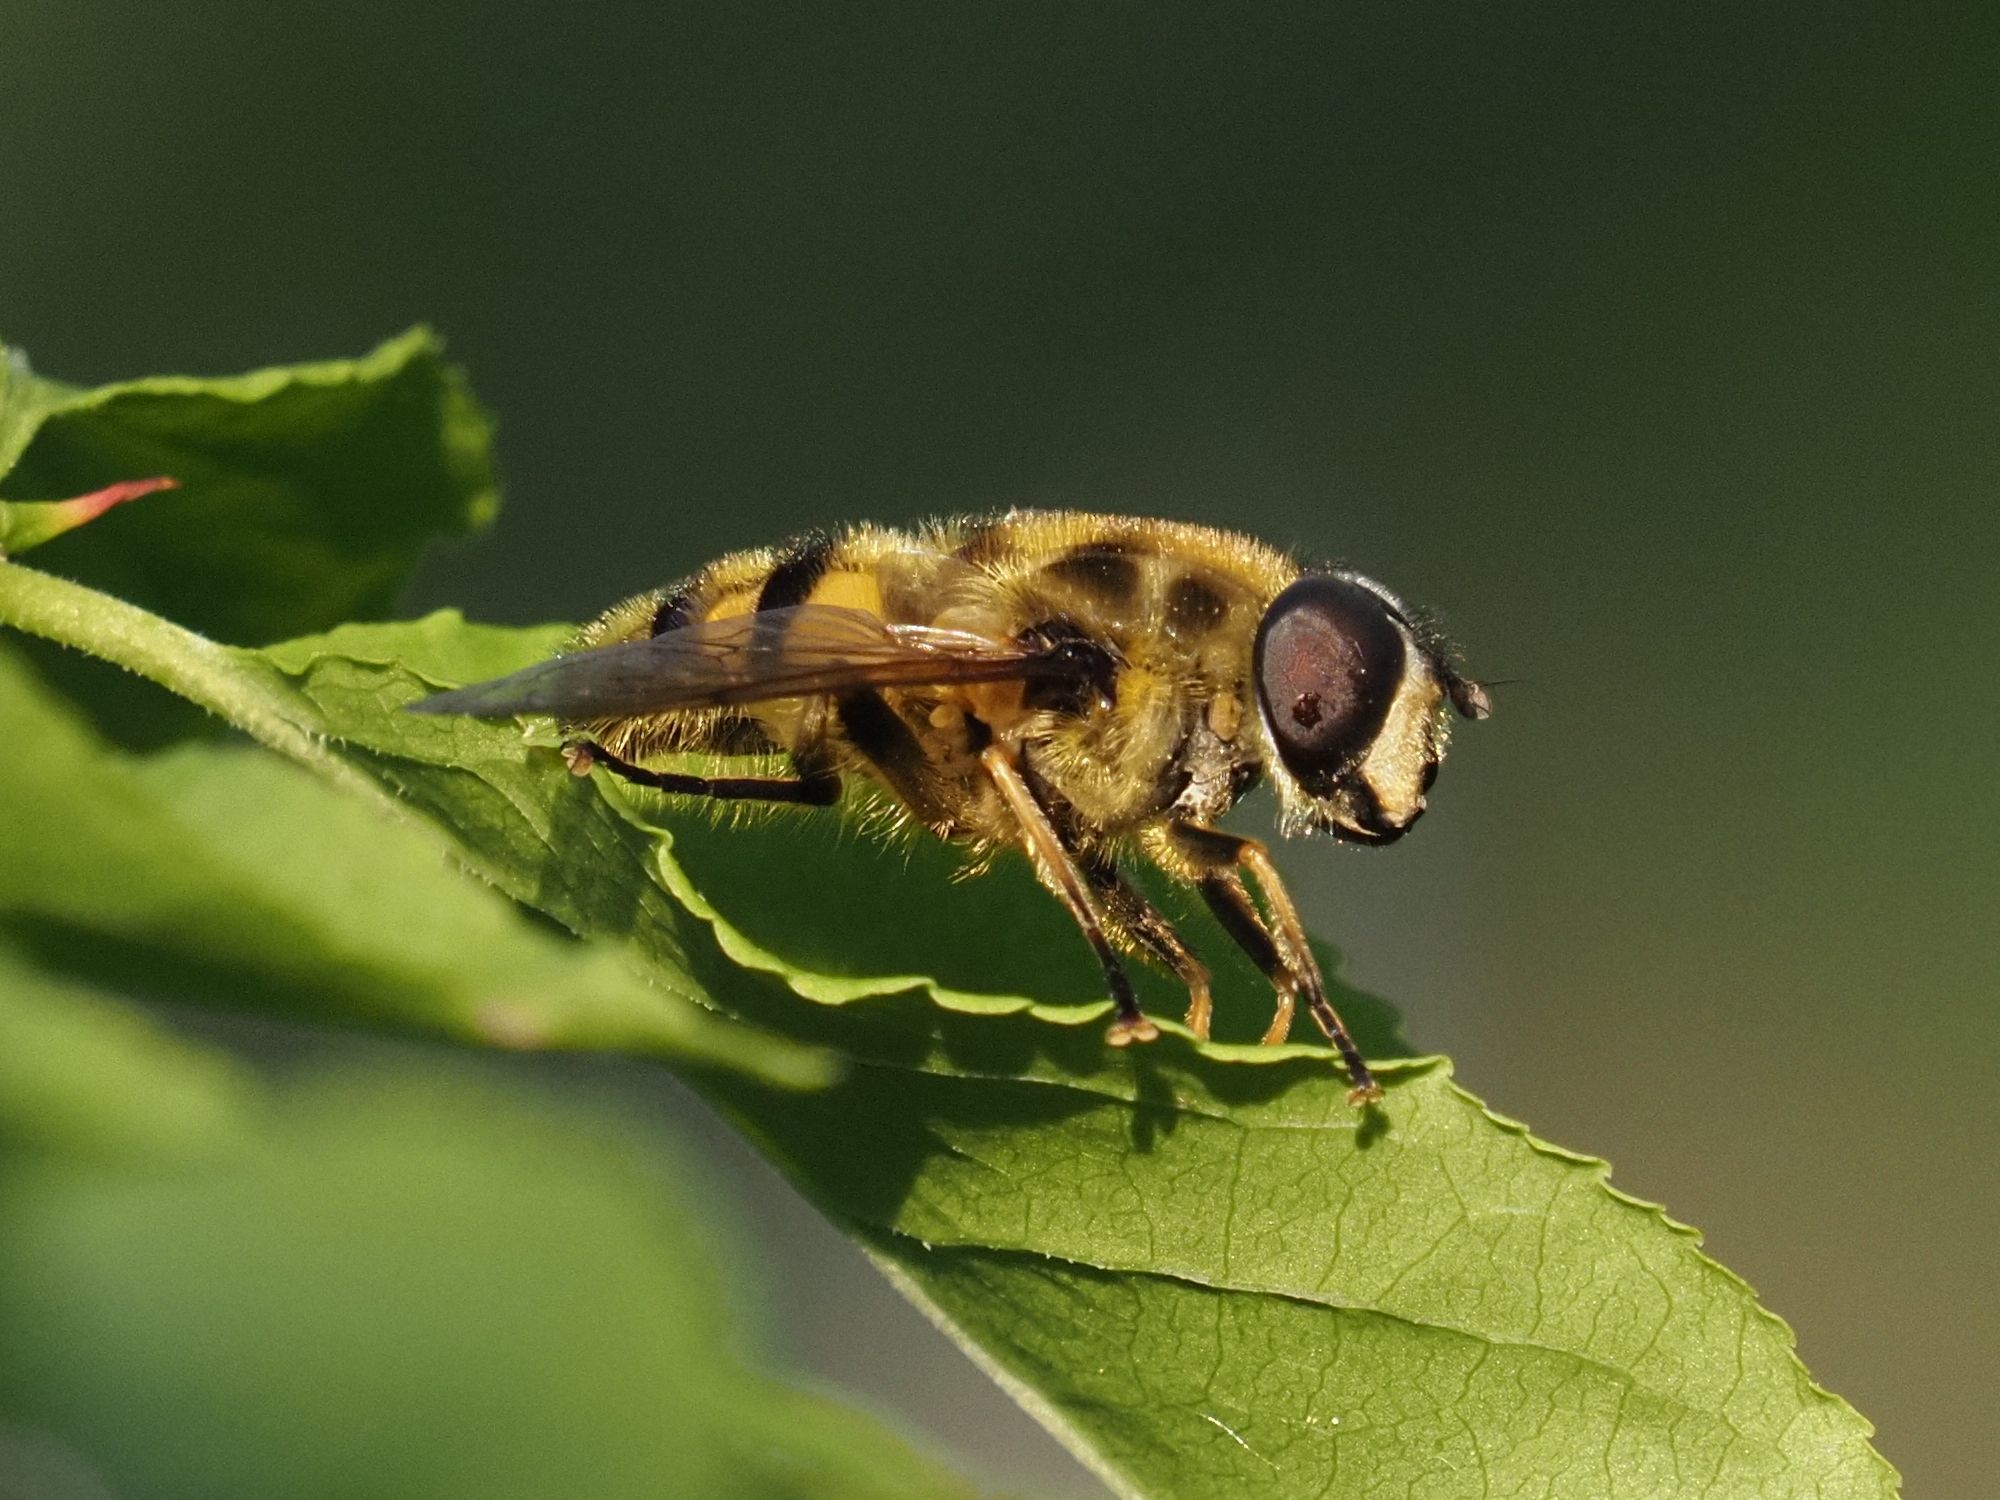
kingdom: Animalia
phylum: Arthropoda
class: Insecta
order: Diptera
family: Syrphidae
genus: Myathropa
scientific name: Myathropa florea
